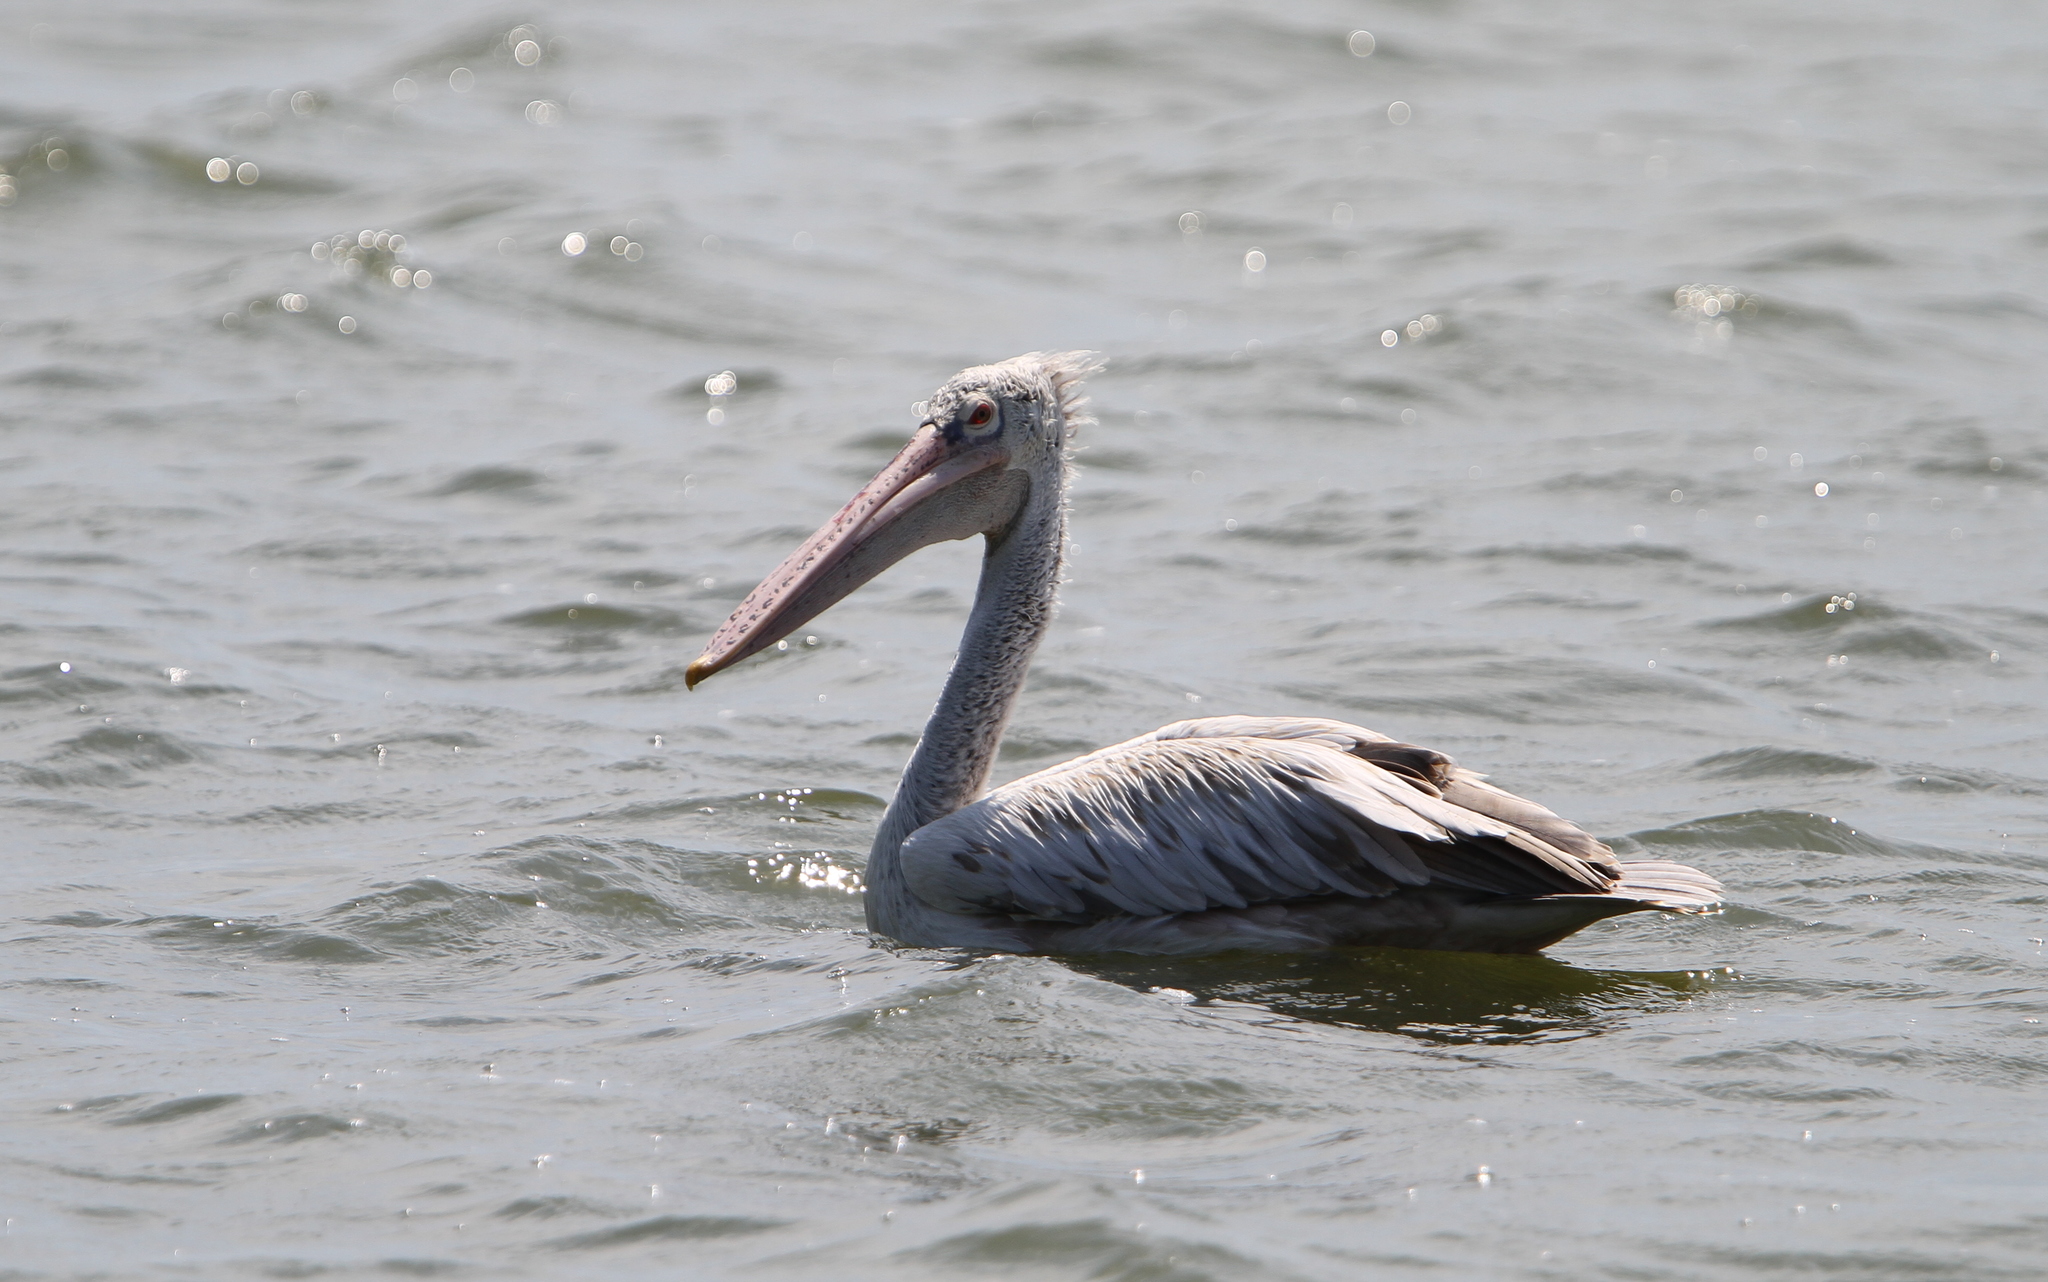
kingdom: Animalia
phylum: Chordata
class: Aves
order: Pelecaniformes
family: Pelecanidae
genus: Pelecanus
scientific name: Pelecanus philippensis
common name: Spot-billed pelican
